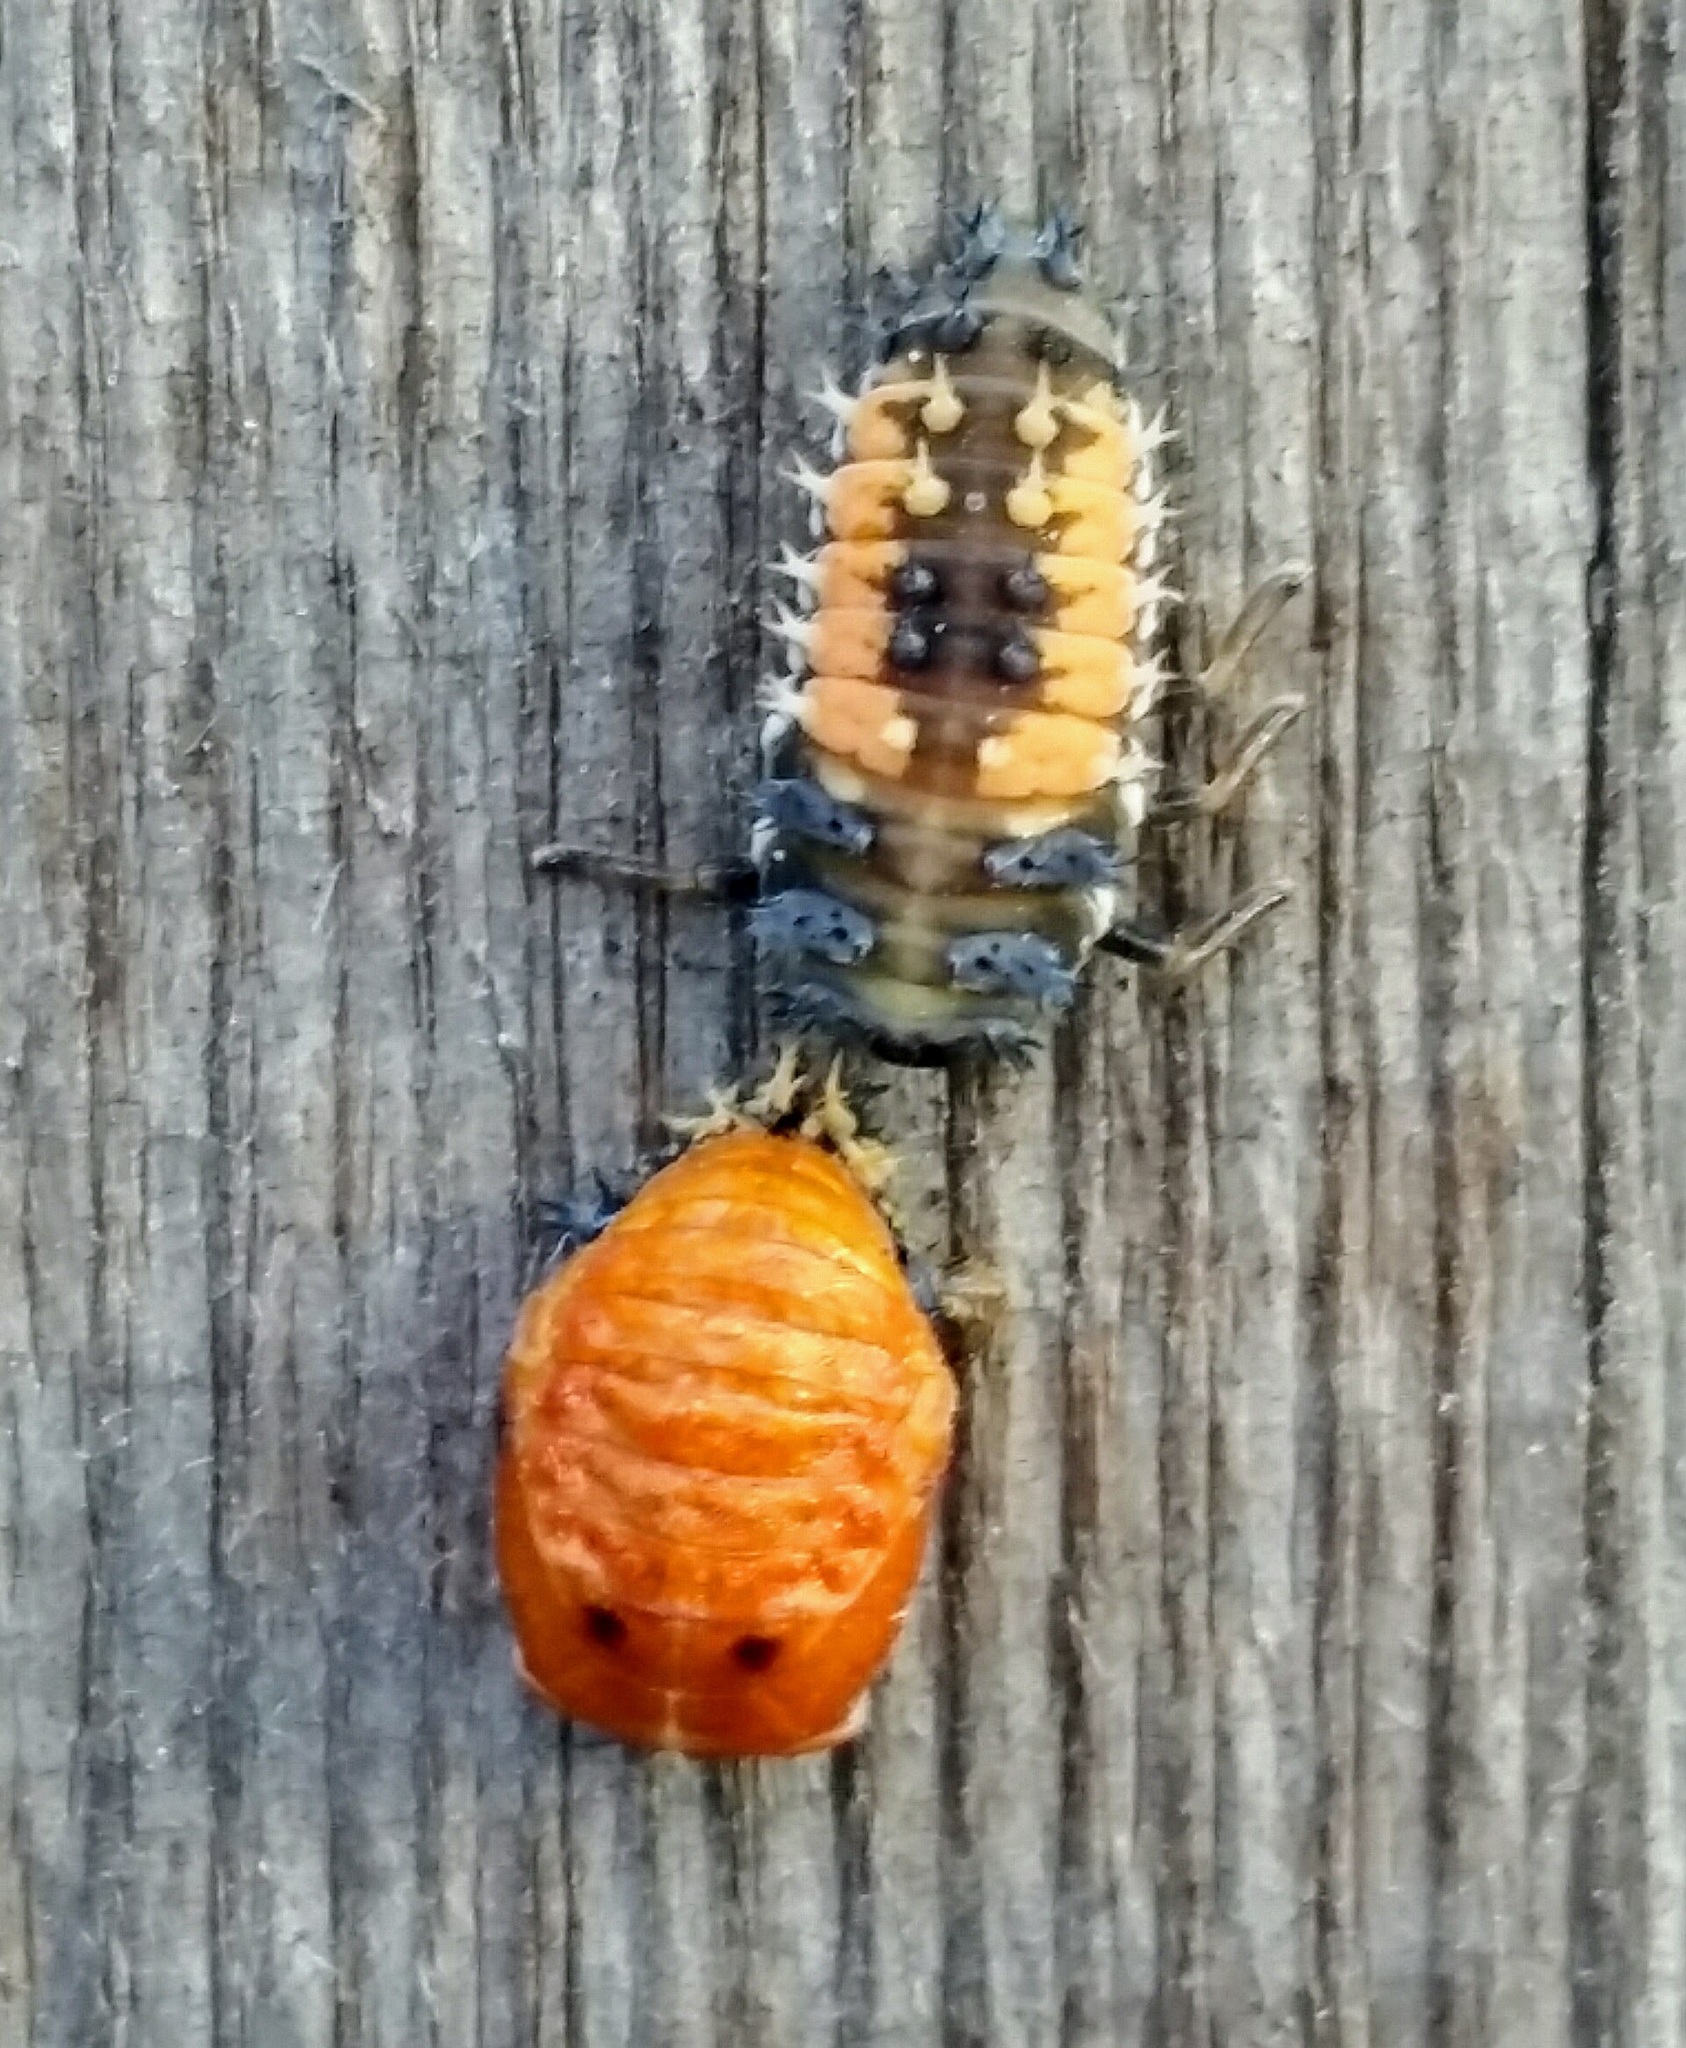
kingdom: Animalia
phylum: Arthropoda
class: Insecta
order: Coleoptera
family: Coccinellidae
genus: Harmonia
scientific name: Harmonia axyridis
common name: Harlequin ladybird
